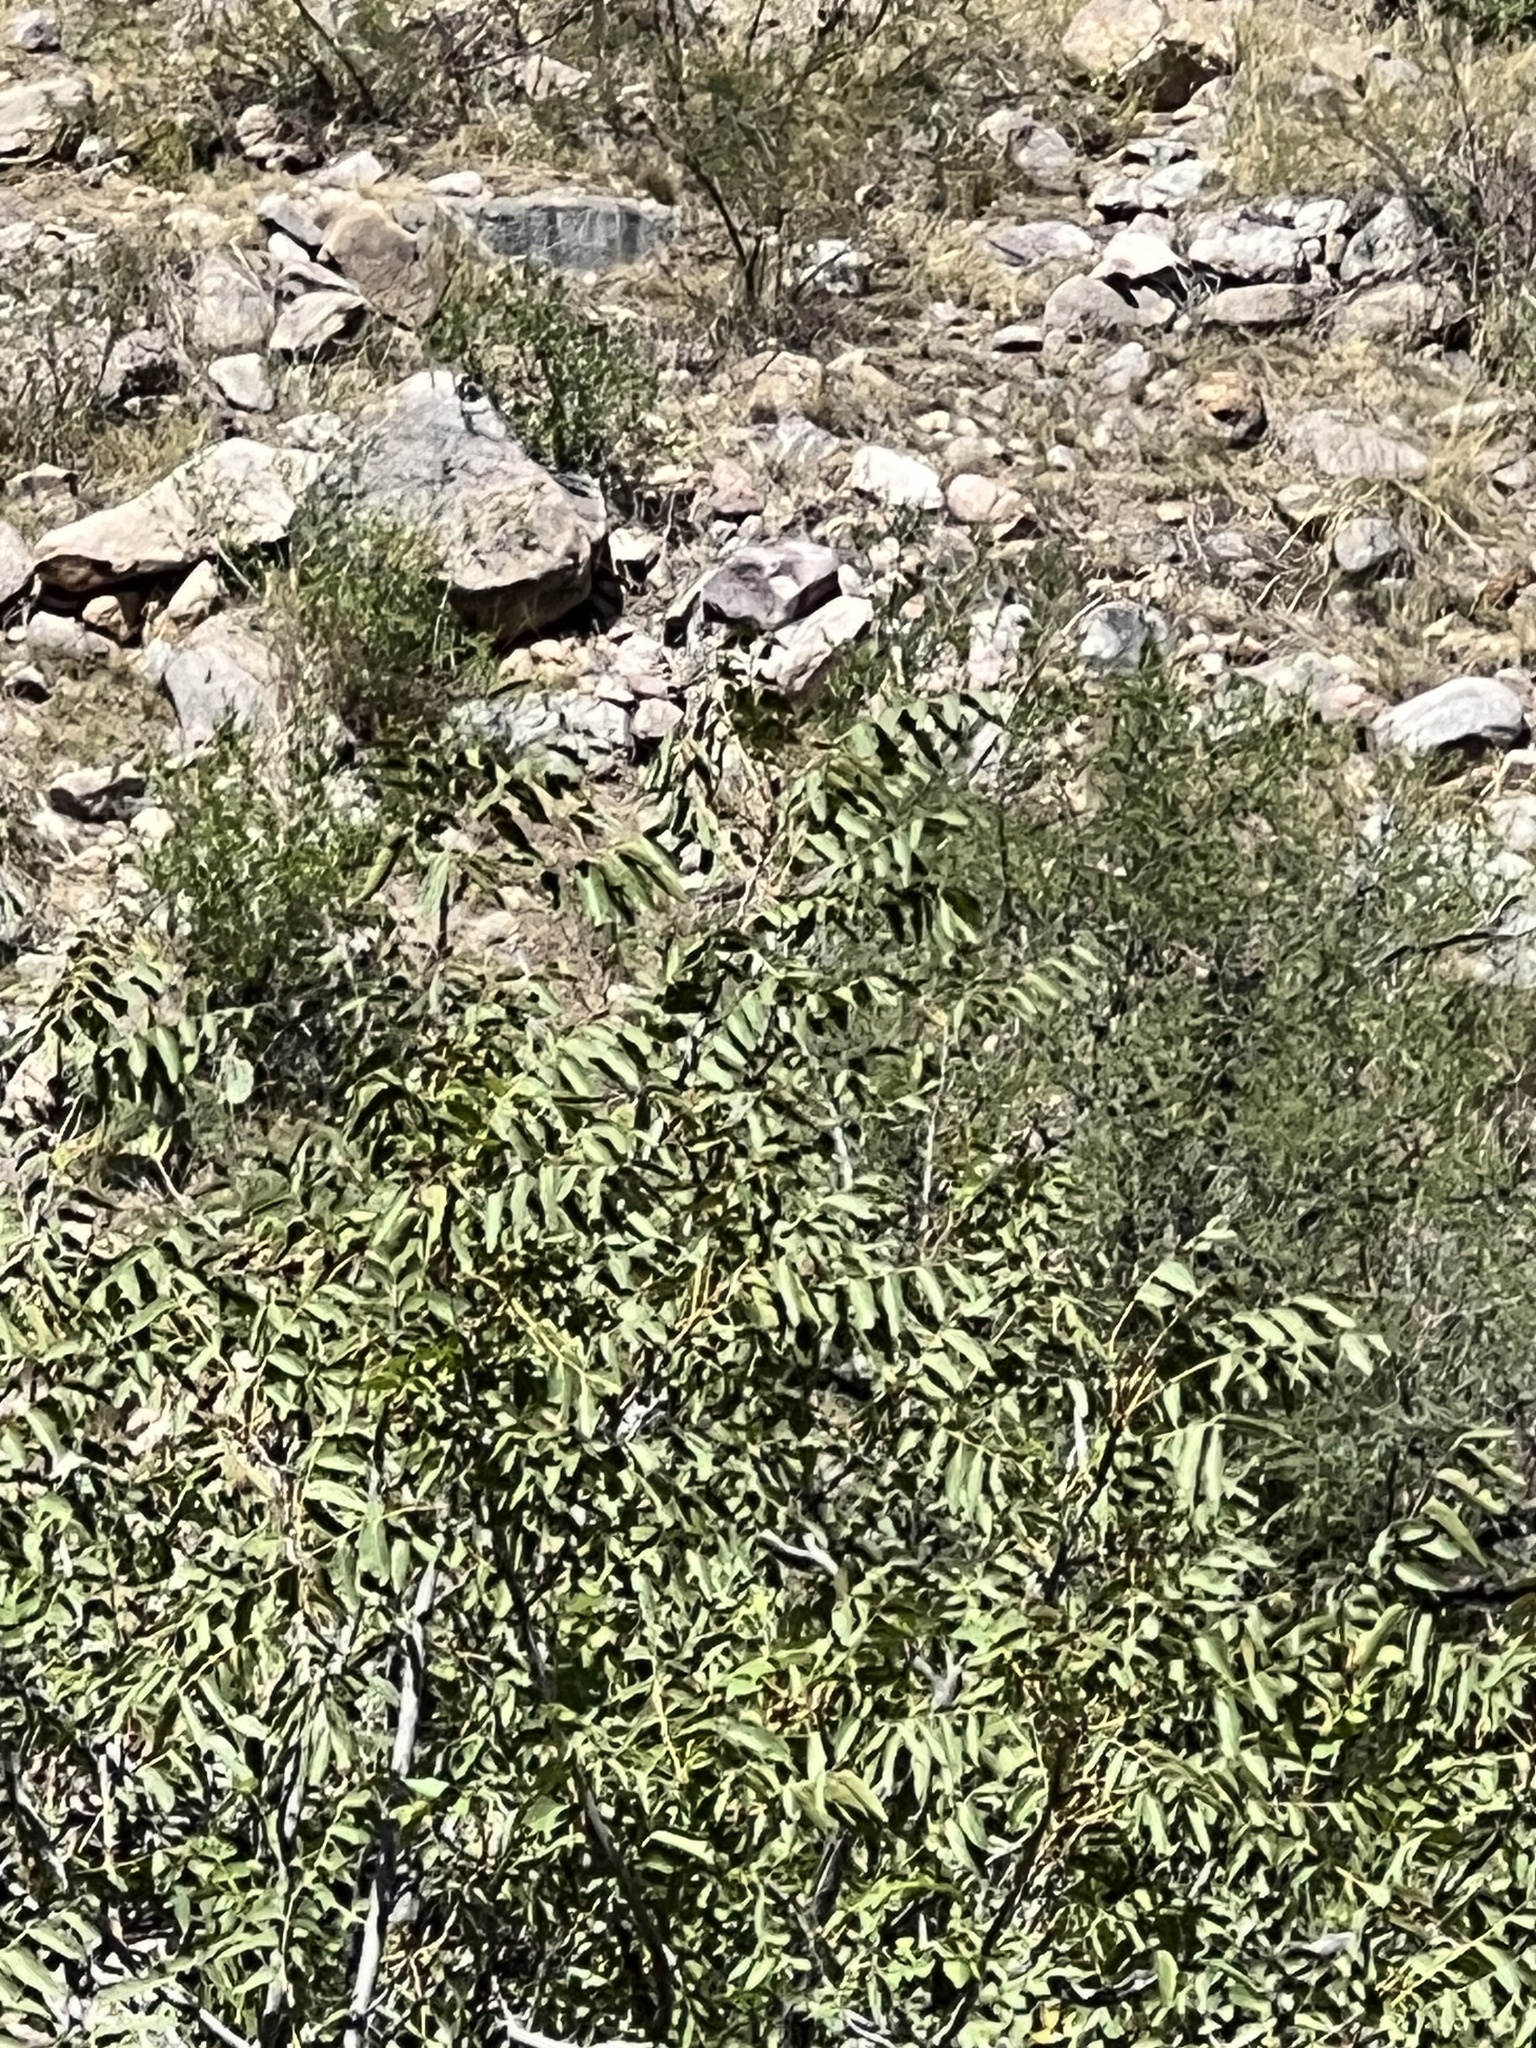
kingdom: Plantae
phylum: Tracheophyta
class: Magnoliopsida
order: Fagales
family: Juglandaceae
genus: Juglans
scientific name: Juglans major
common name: Arizona walnut
